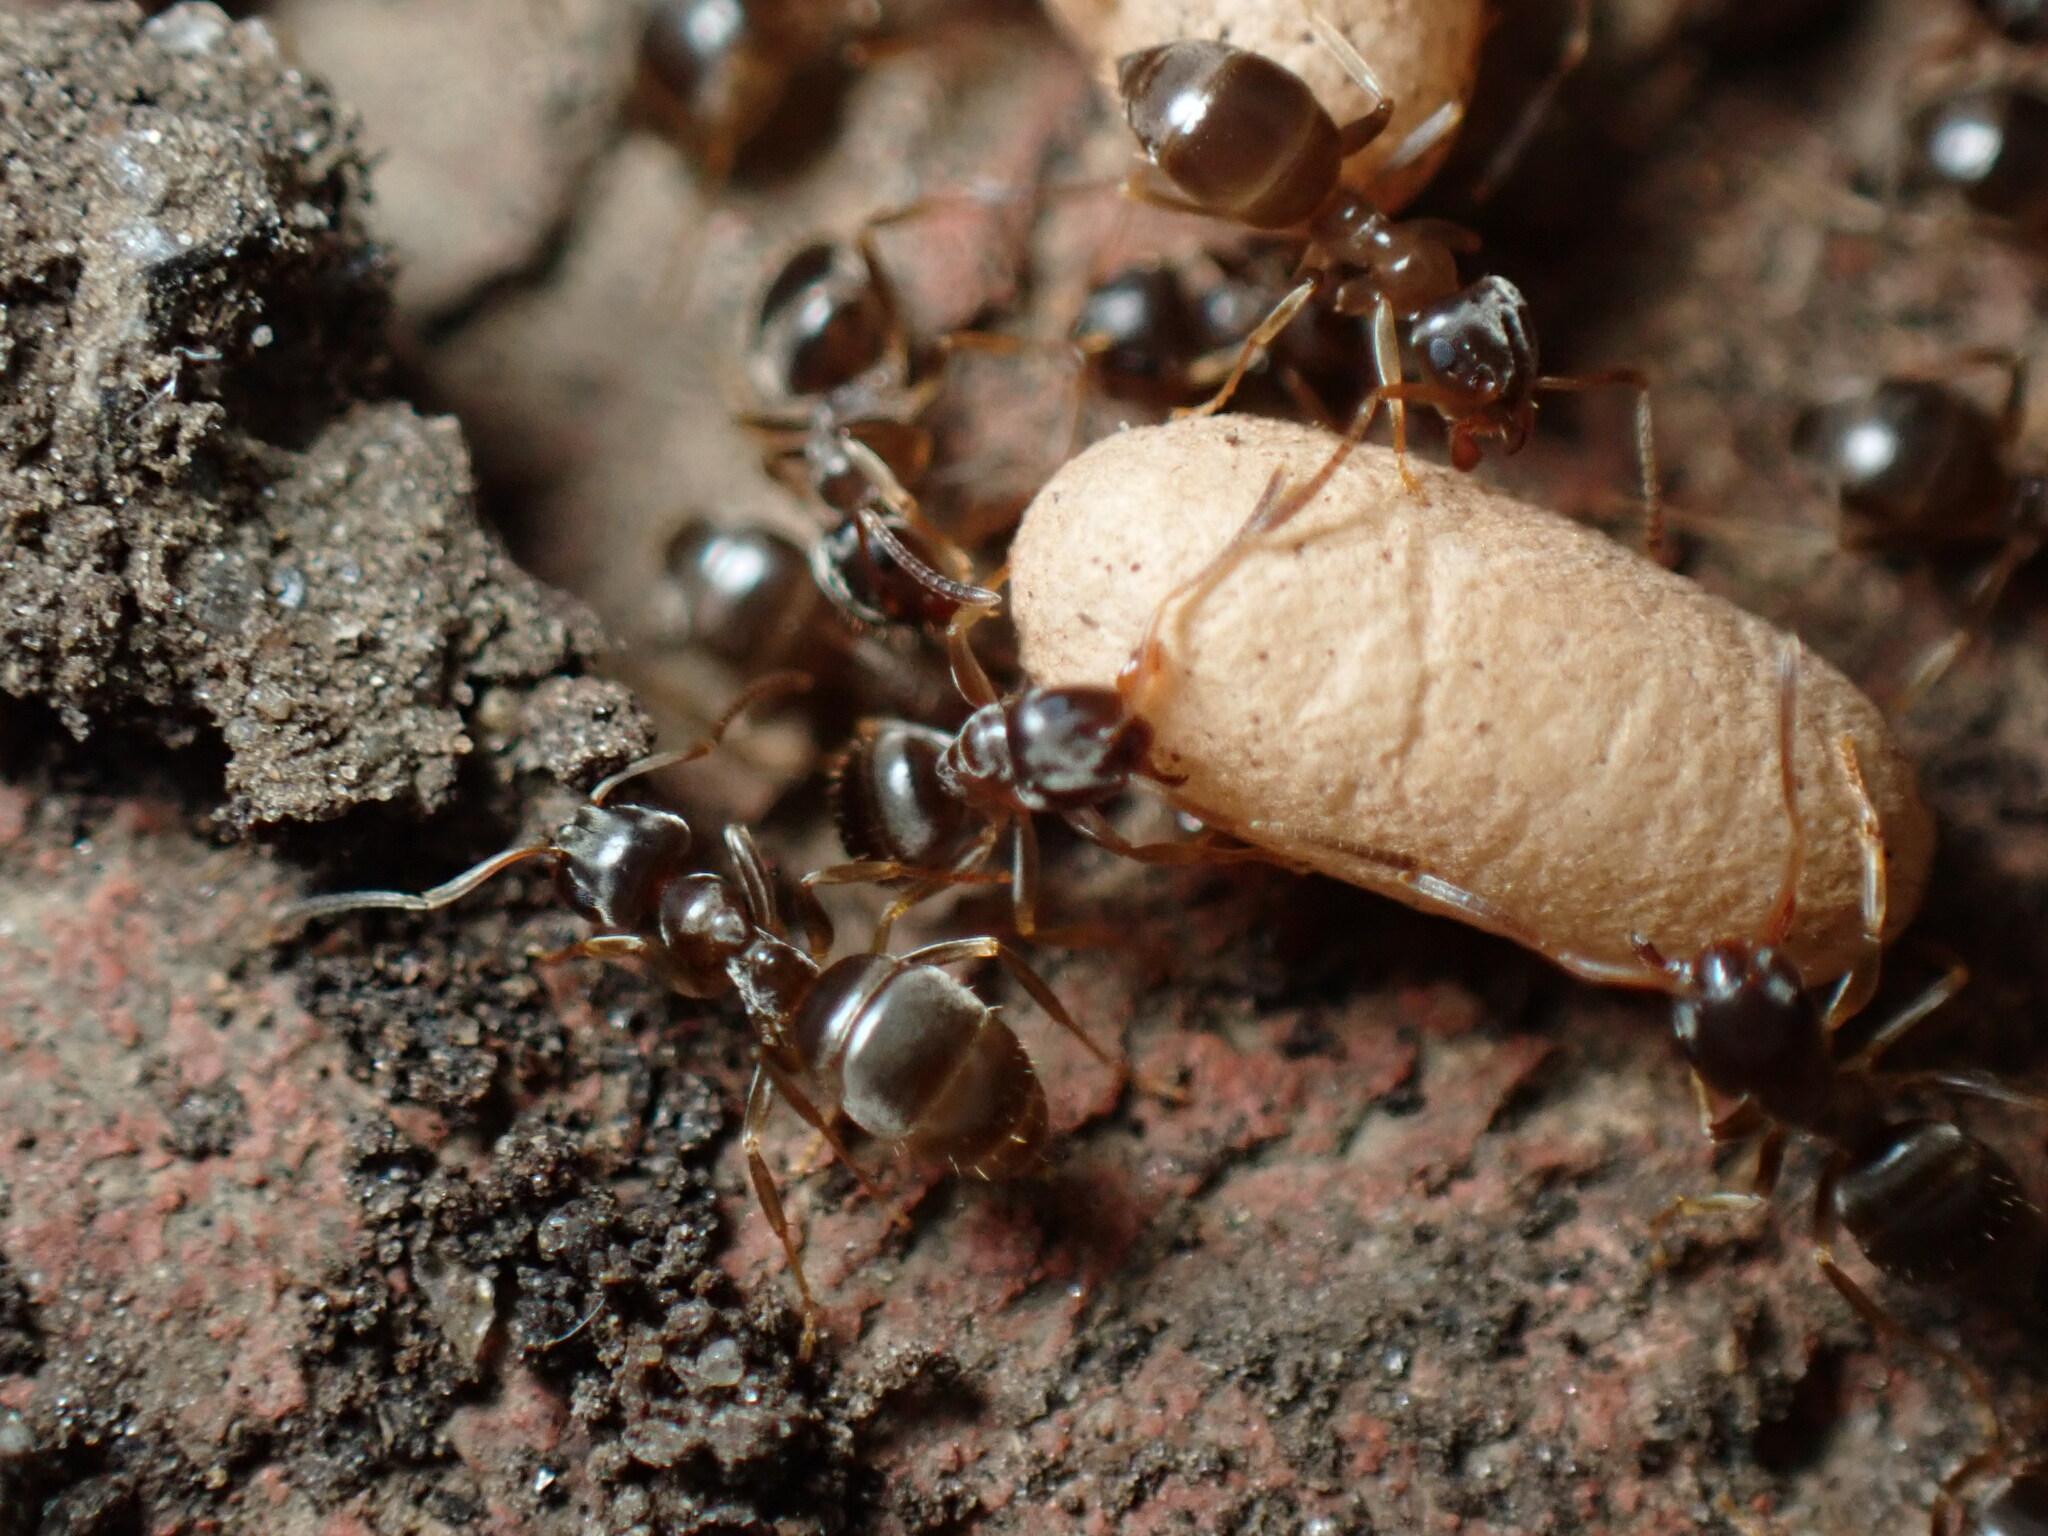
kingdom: Animalia
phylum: Arthropoda
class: Insecta
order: Hymenoptera
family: Formicidae
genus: Lasius
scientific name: Lasius americanus
